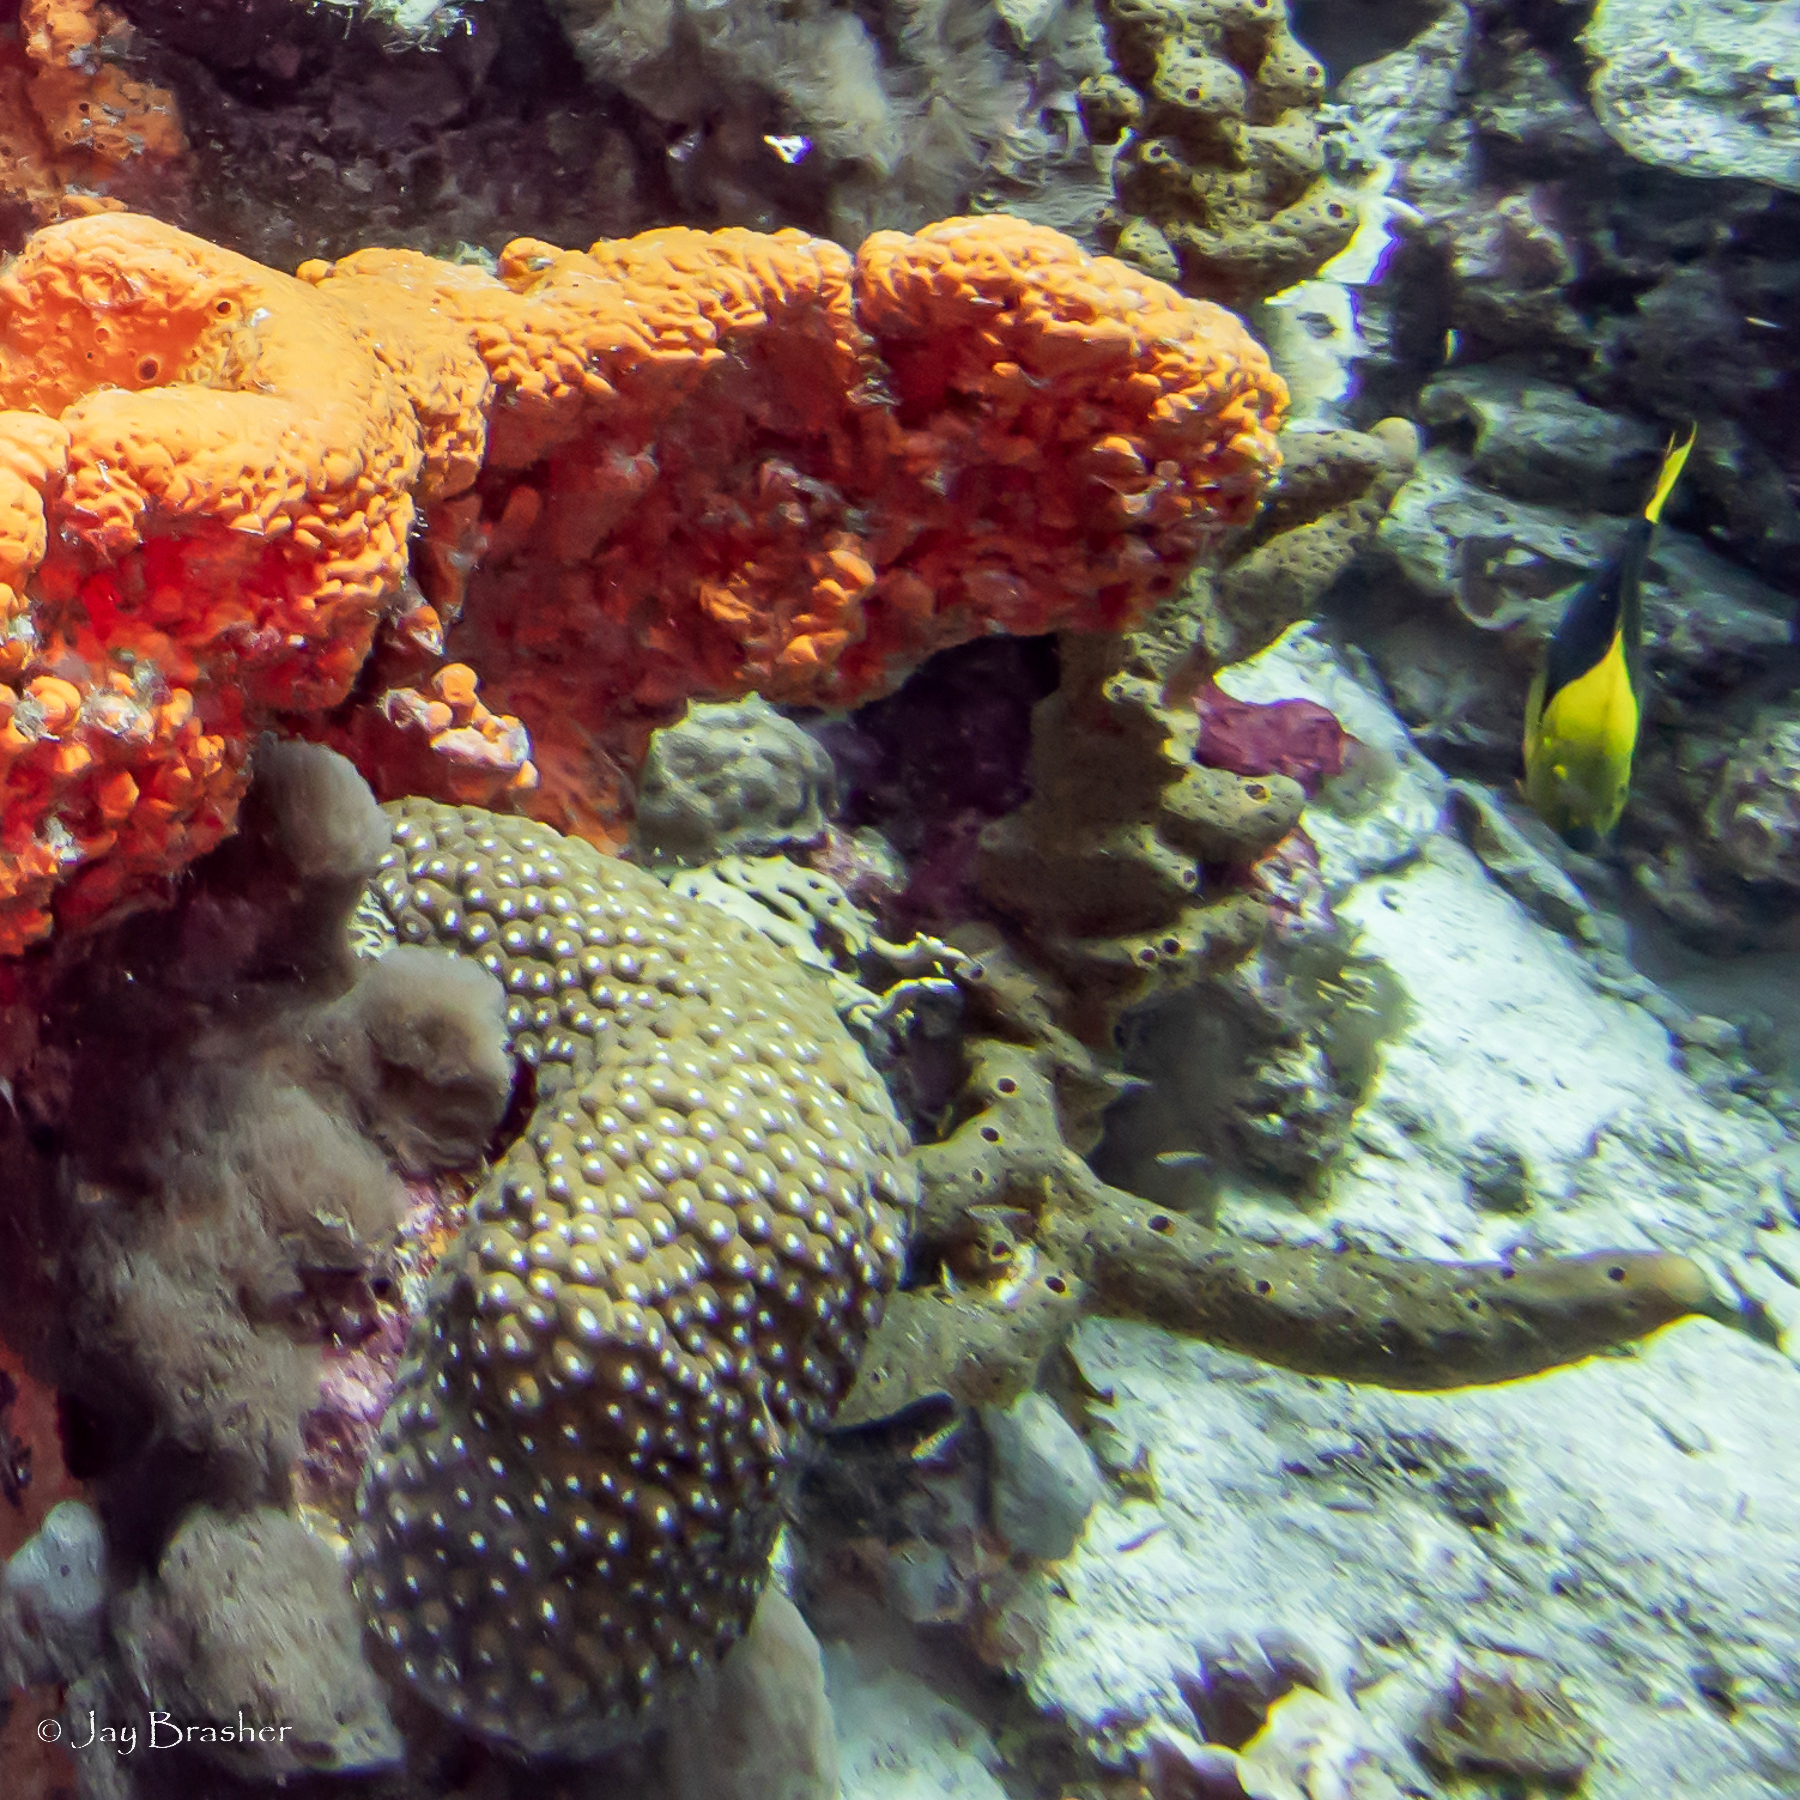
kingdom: Animalia
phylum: Chordata
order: Perciformes
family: Pomacanthidae
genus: Holacanthus
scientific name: Holacanthus tricolor
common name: Rock beauty
